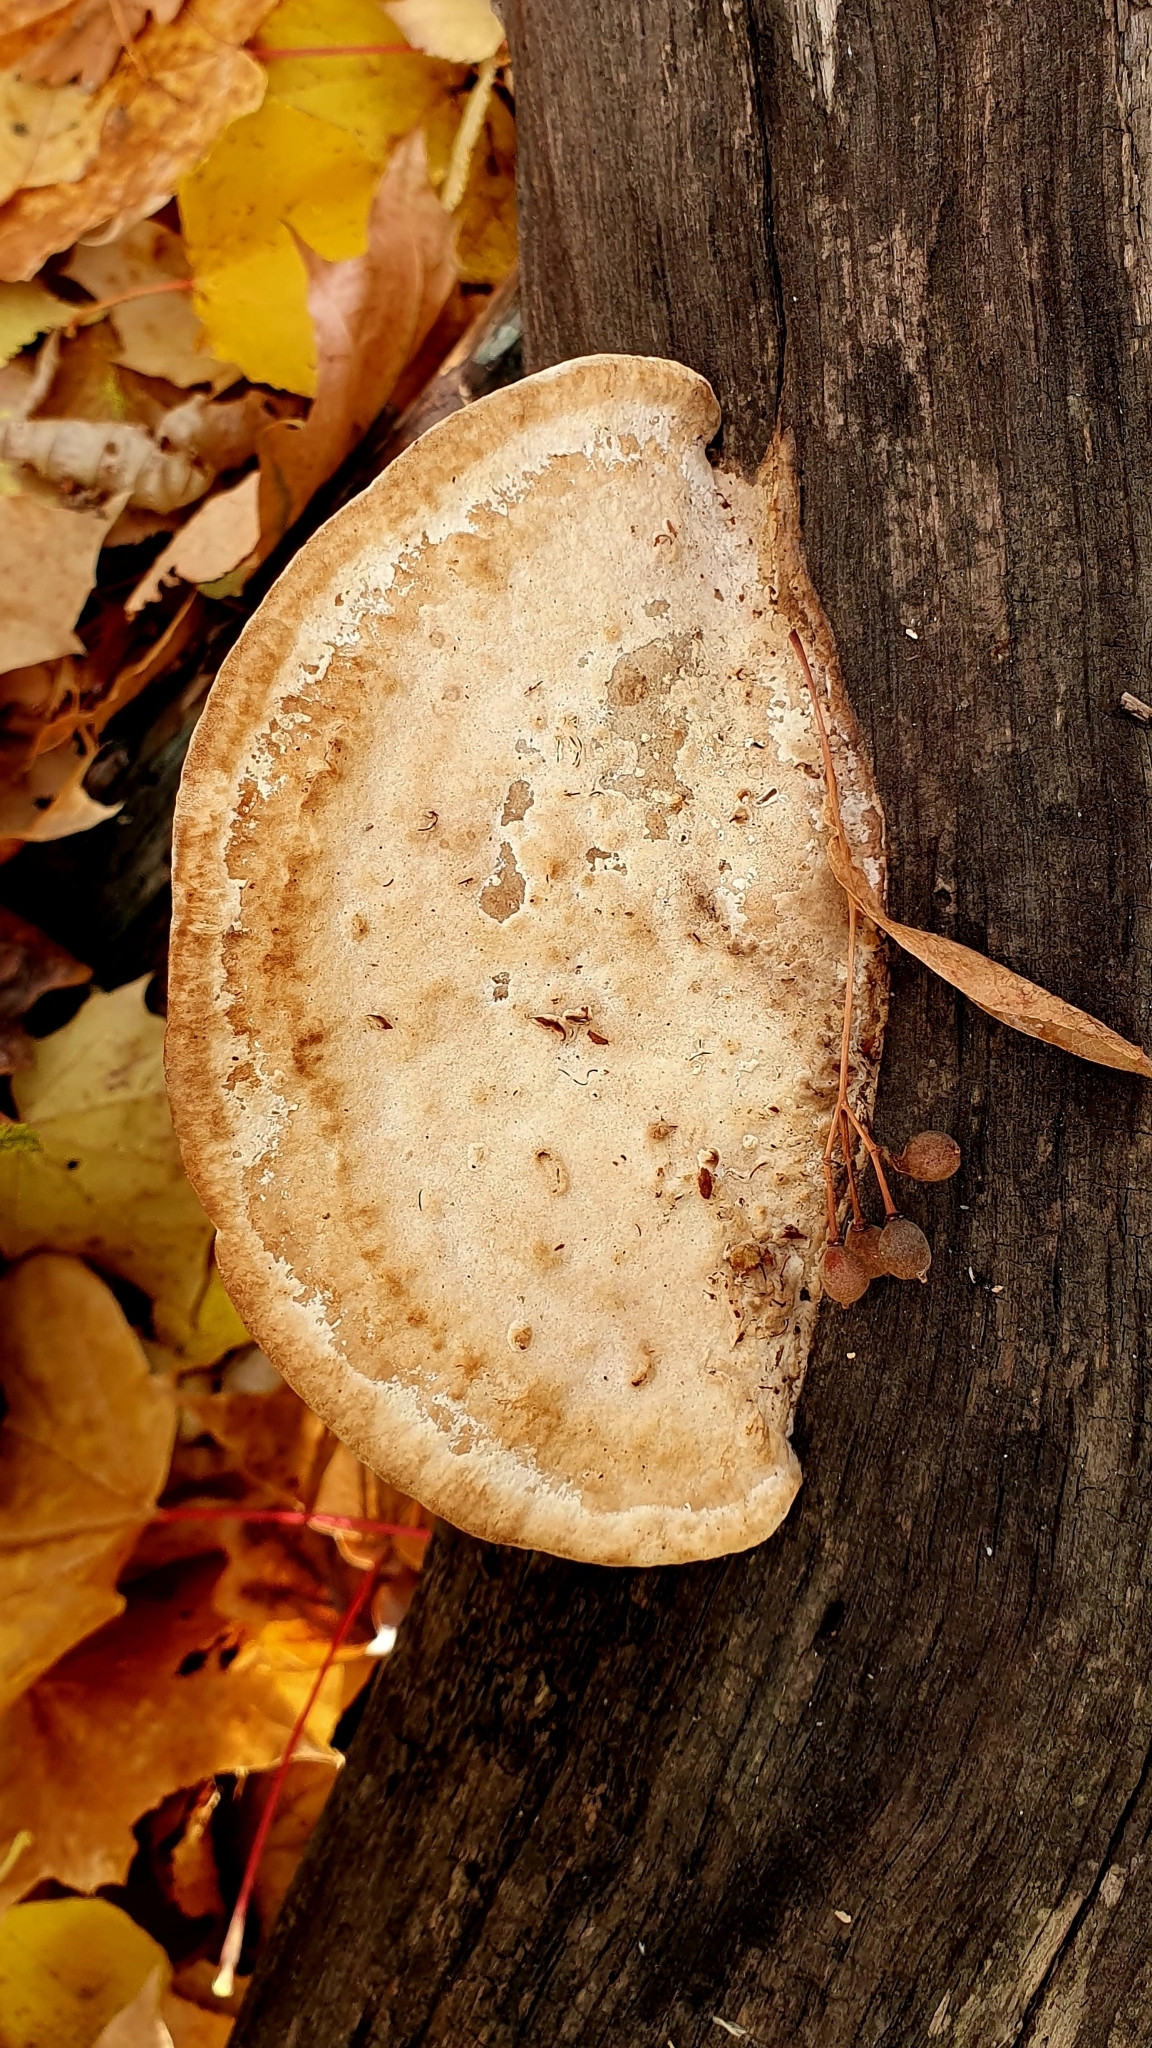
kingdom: Fungi
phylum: Basidiomycota
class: Agaricomycetes
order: Polyporales
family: Fomitopsidaceae
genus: Fomitopsis
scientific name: Fomitopsis
